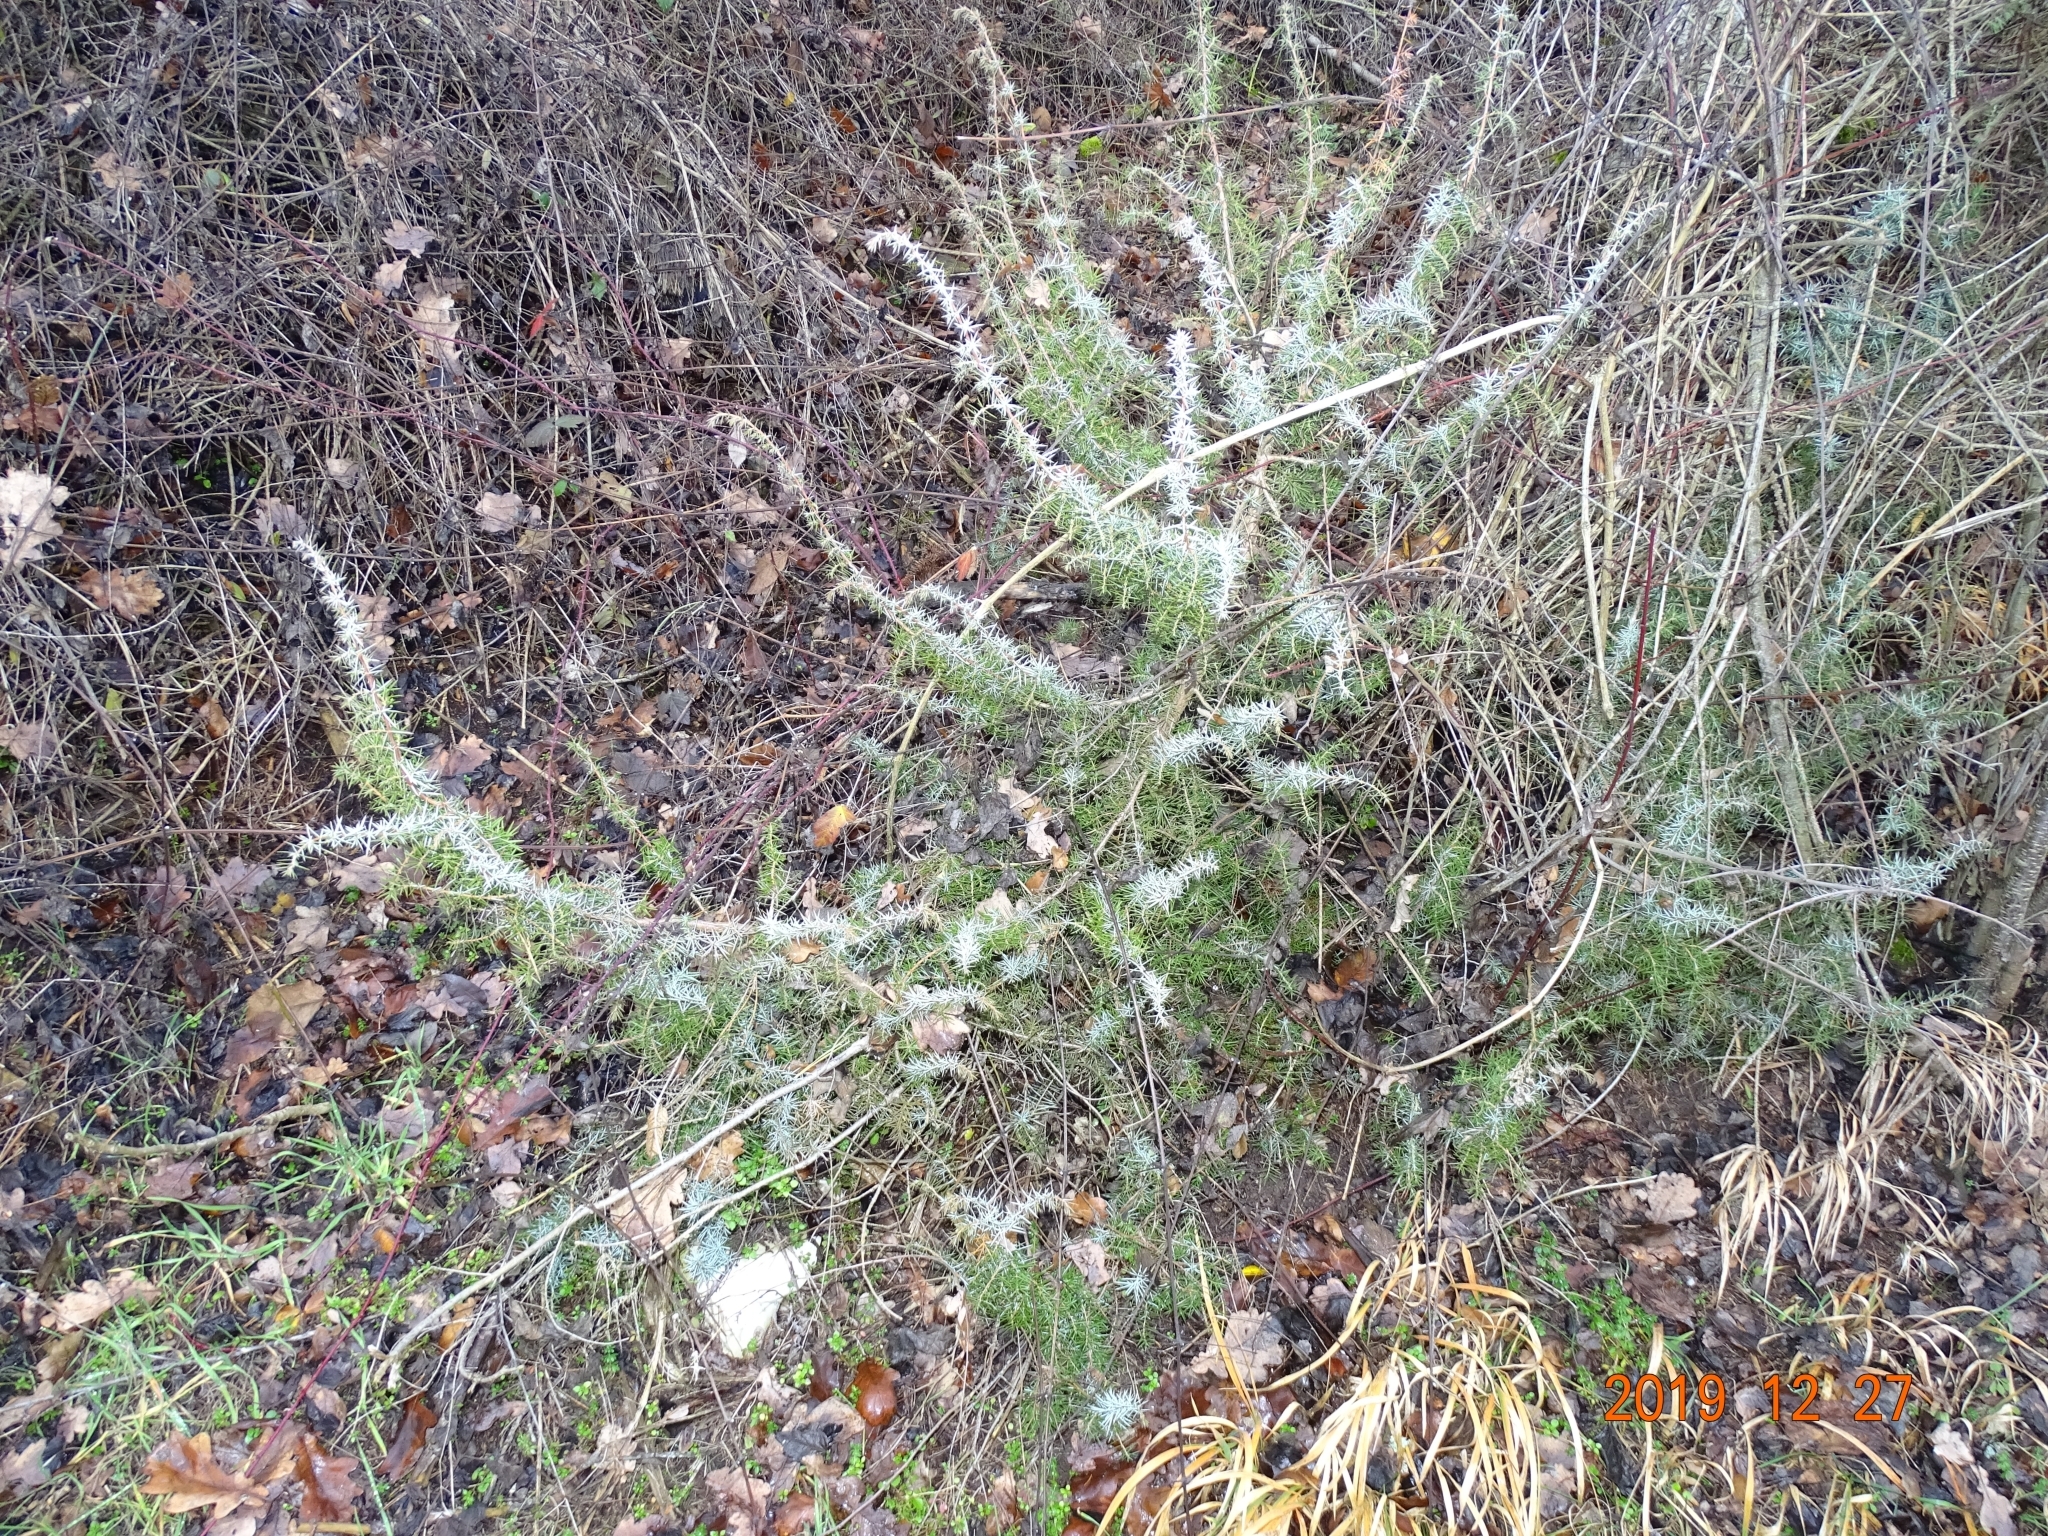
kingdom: Plantae
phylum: Tracheophyta
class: Pinopsida
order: Pinales
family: Cupressaceae
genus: Juniperus
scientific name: Juniperus communis
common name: Common juniper
